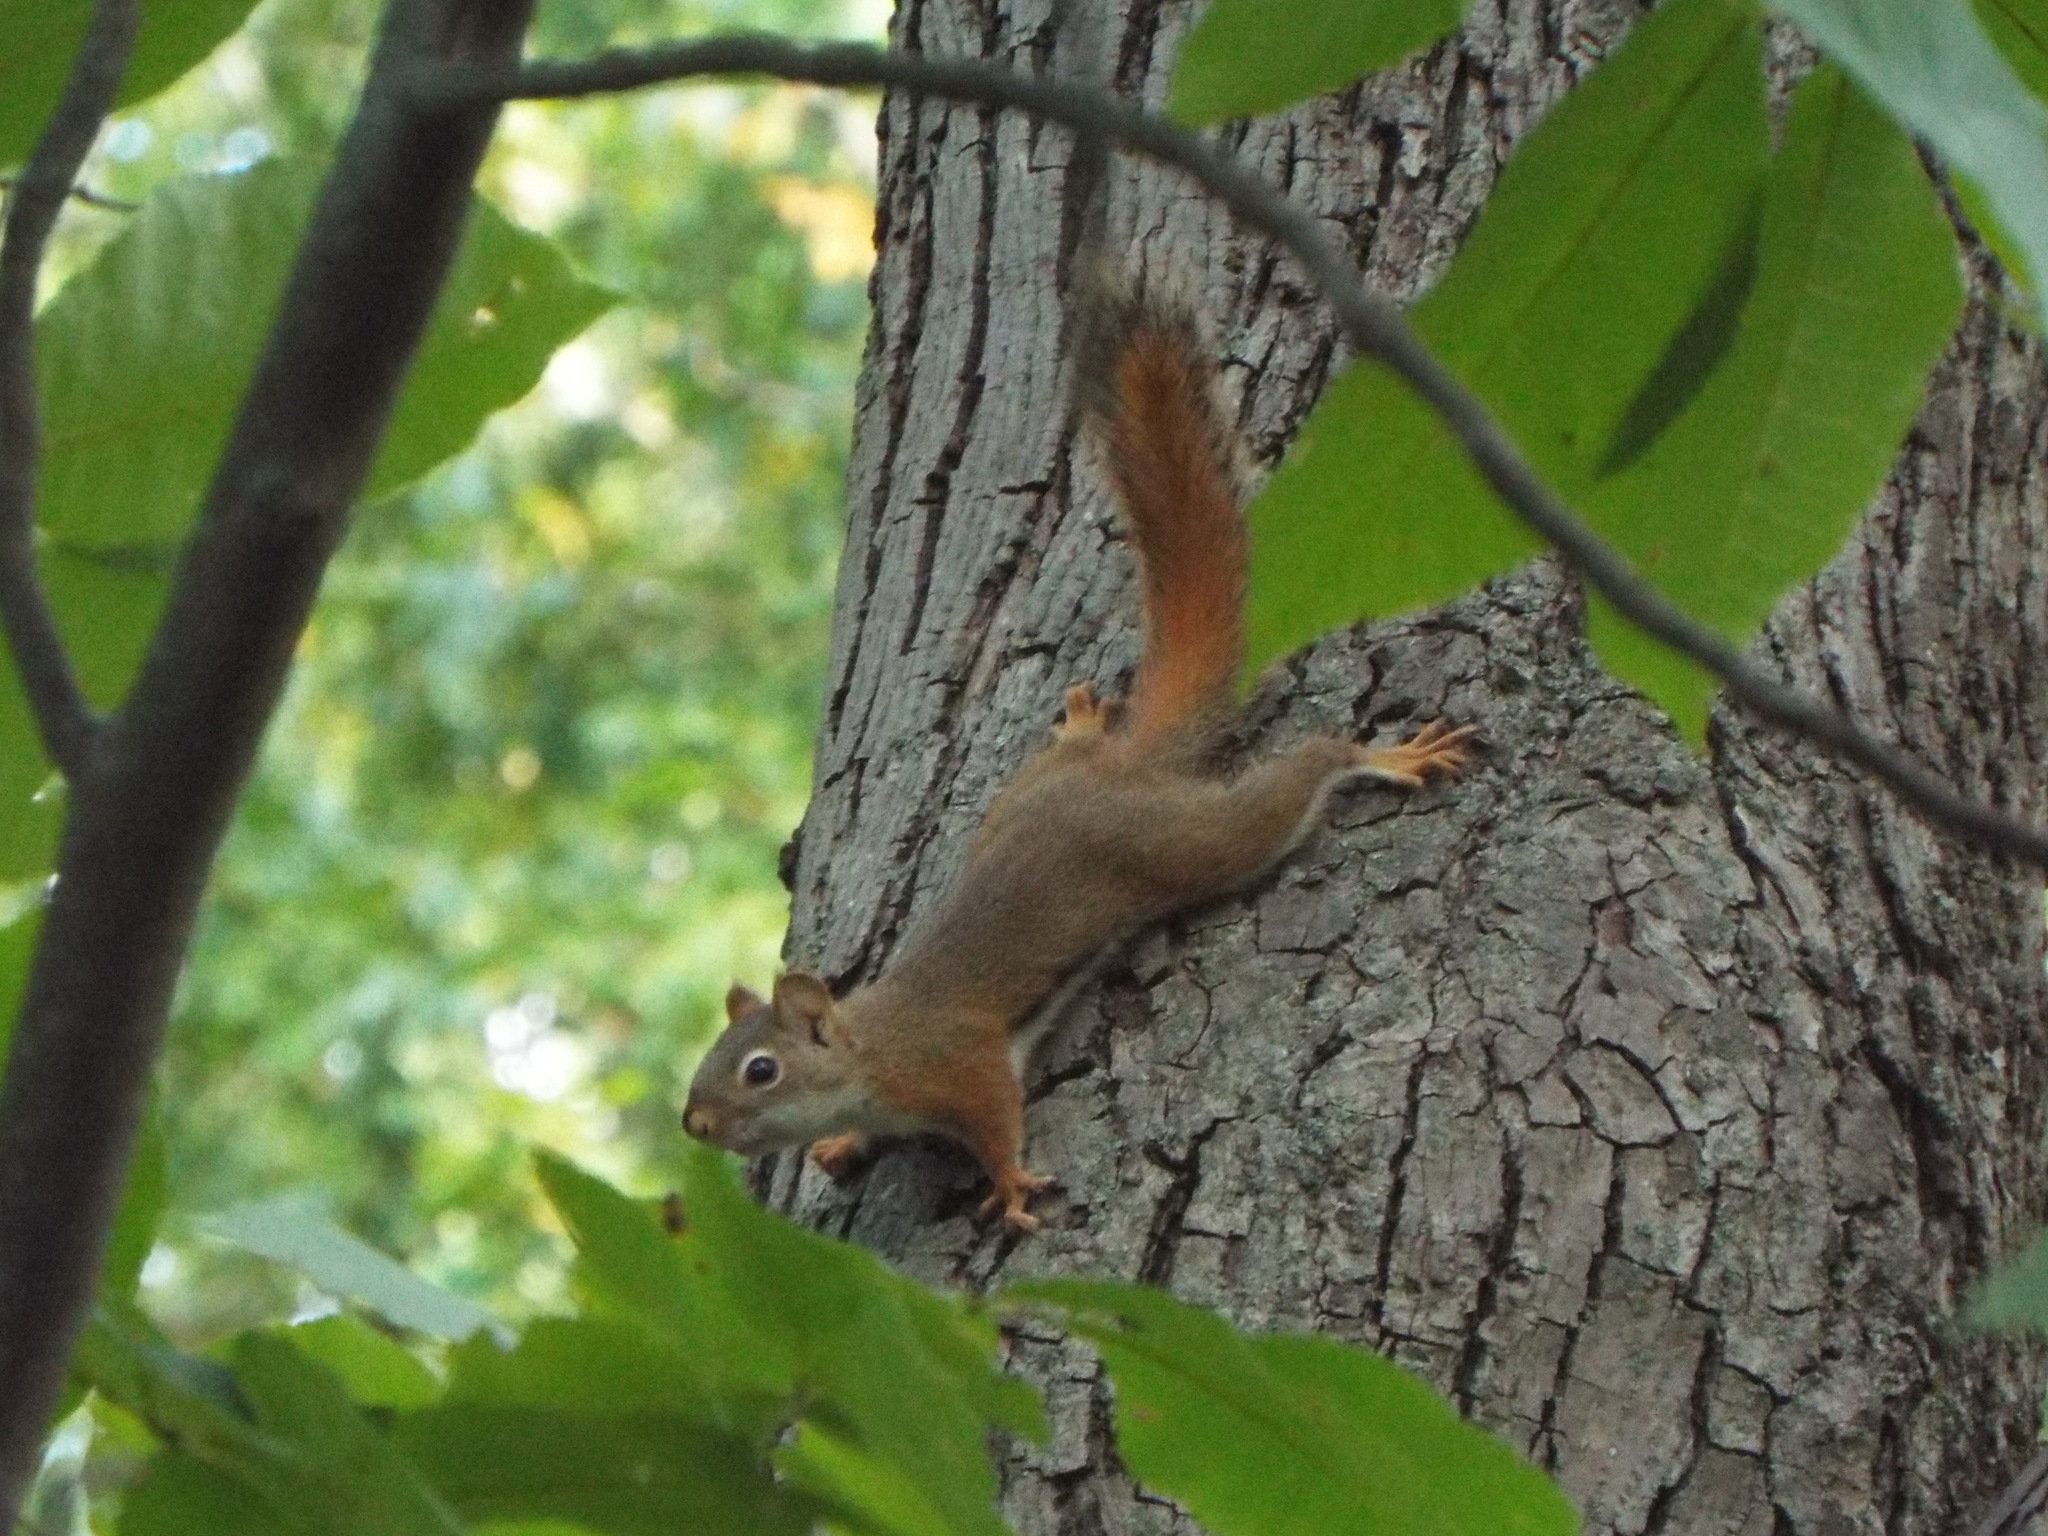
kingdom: Animalia
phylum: Chordata
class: Mammalia
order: Rodentia
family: Sciuridae
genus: Tamiasciurus
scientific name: Tamiasciurus hudsonicus
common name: Red squirrel
